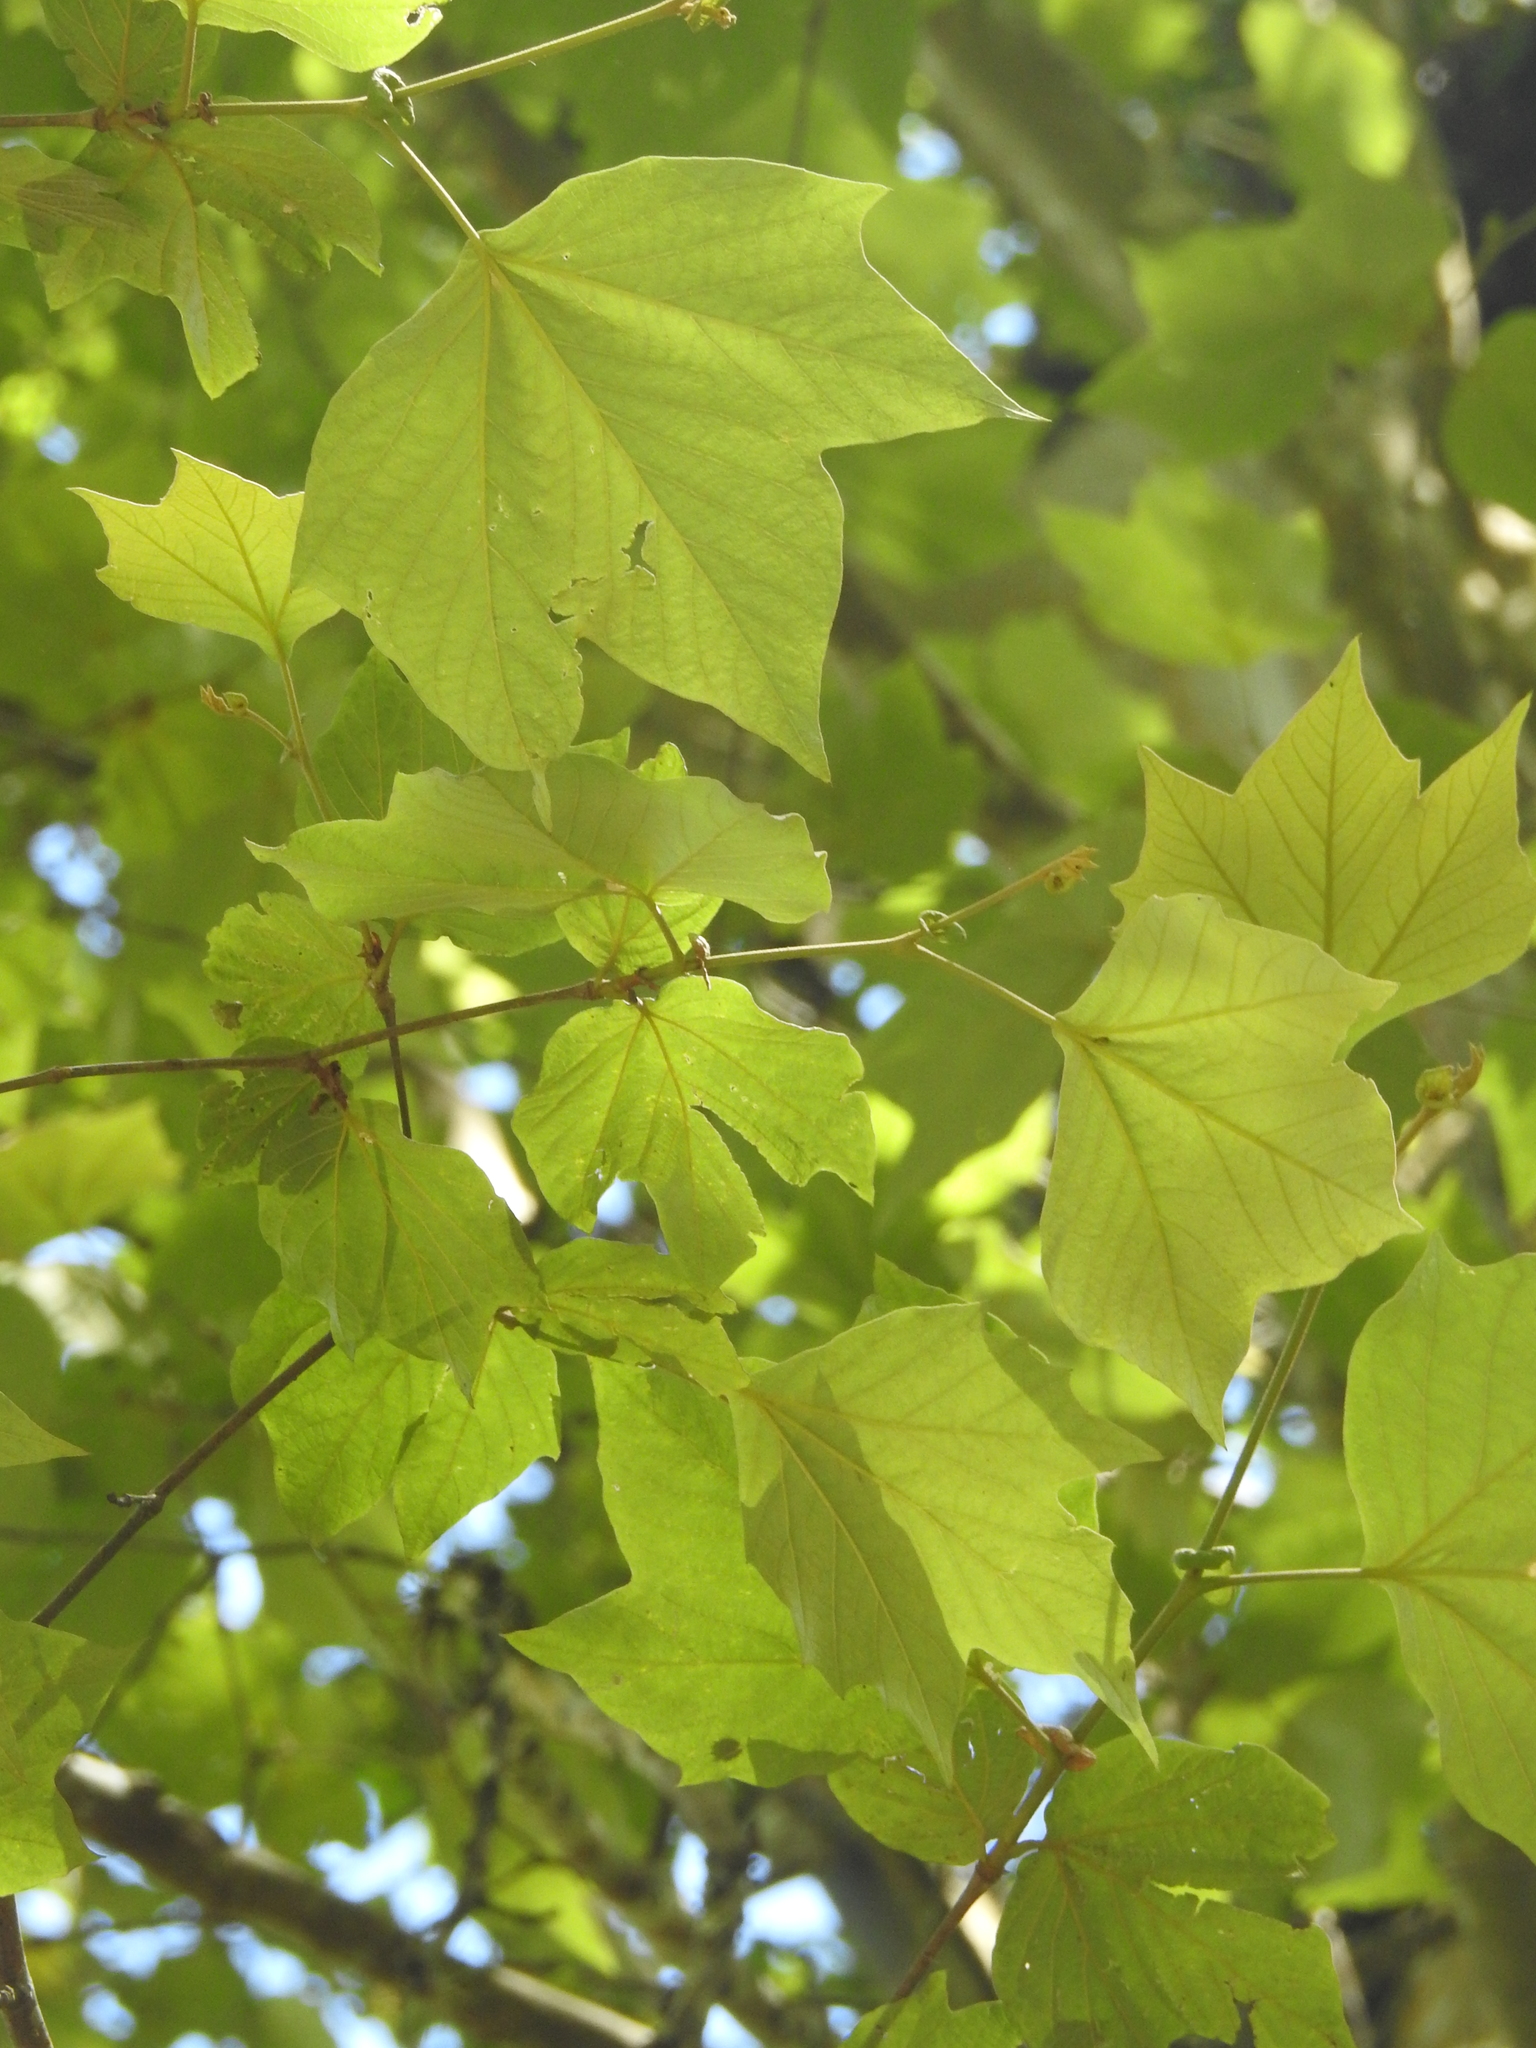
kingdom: Plantae
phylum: Tracheophyta
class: Magnoliopsida
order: Proteales
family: Platanaceae
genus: Platanus
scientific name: Platanus mexicana
